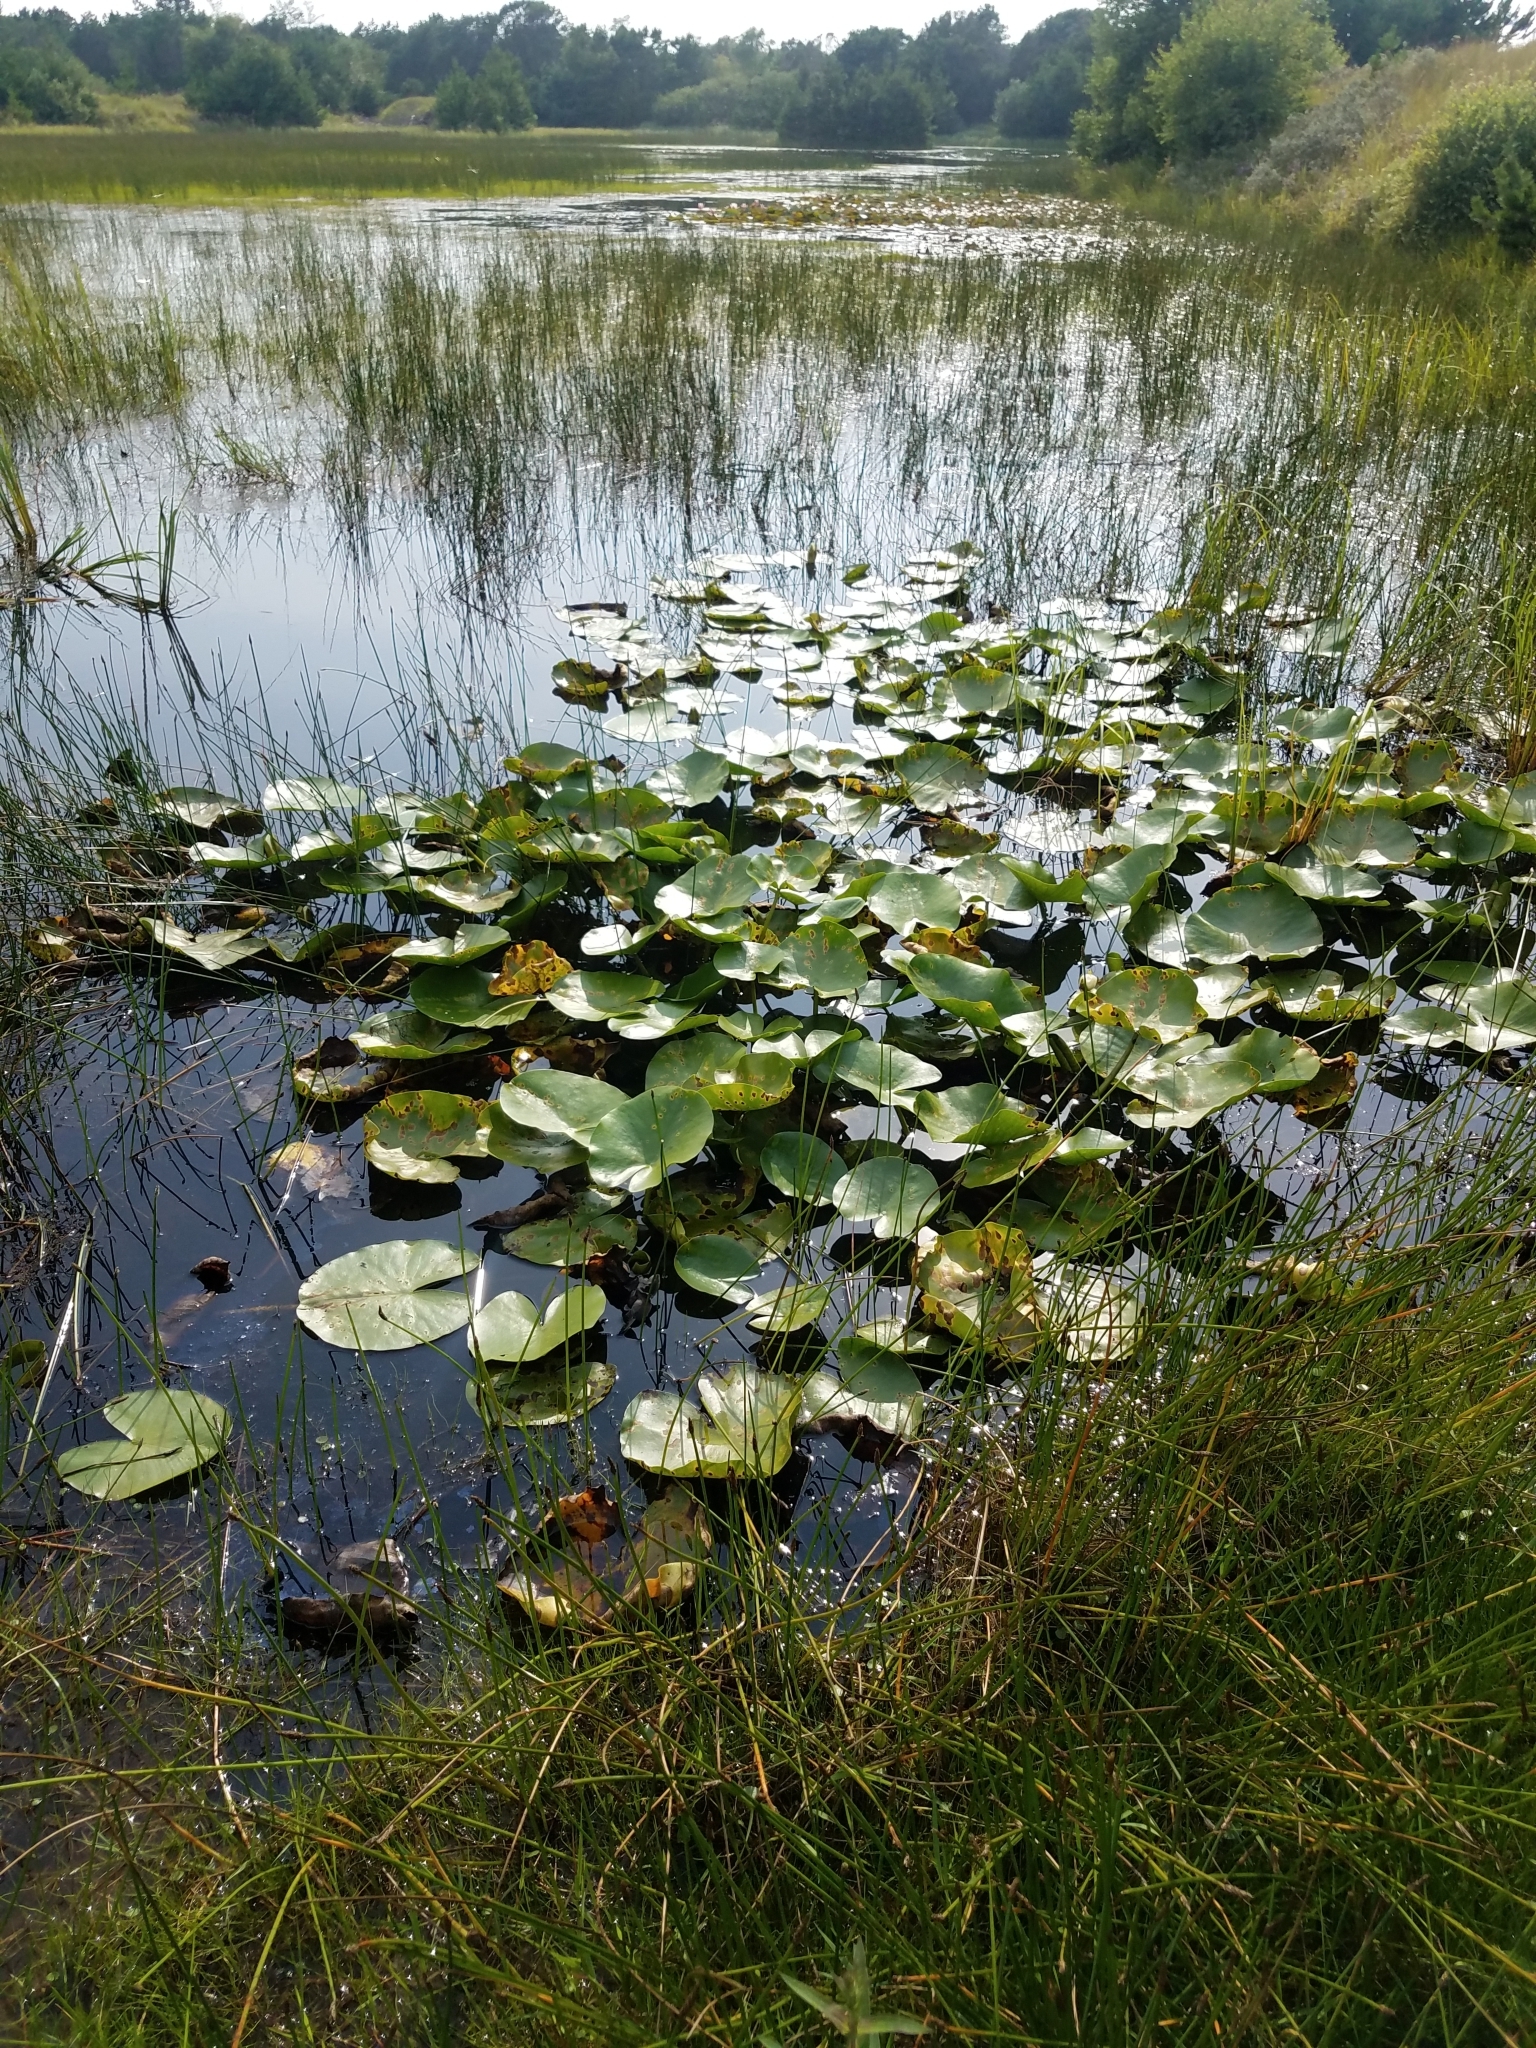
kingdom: Plantae
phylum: Tracheophyta
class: Magnoliopsida
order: Nymphaeales
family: Nymphaeaceae
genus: Nymphaea
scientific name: Nymphaea alba
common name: White water-lily
